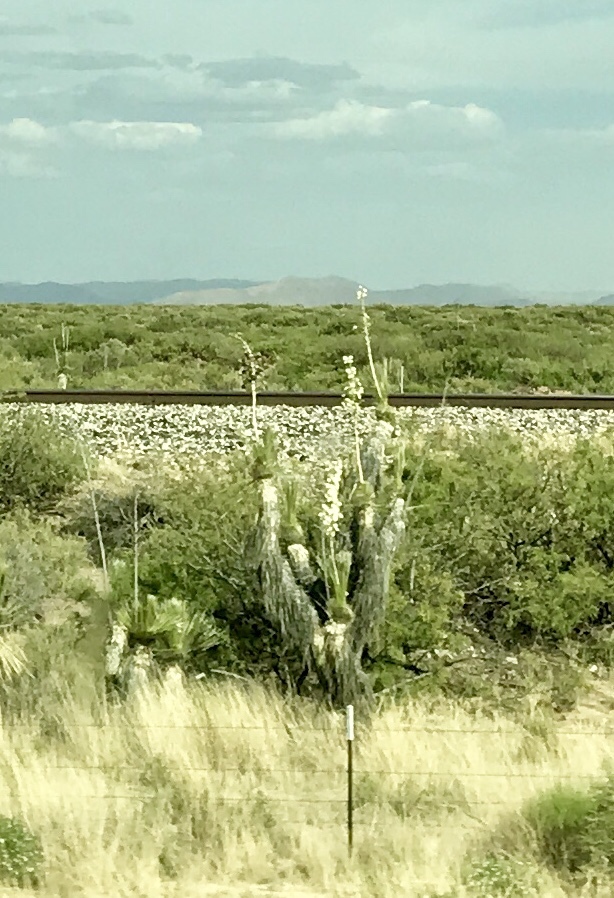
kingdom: Plantae
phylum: Tracheophyta
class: Liliopsida
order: Asparagales
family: Asparagaceae
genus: Yucca
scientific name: Yucca elata
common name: Palmella
